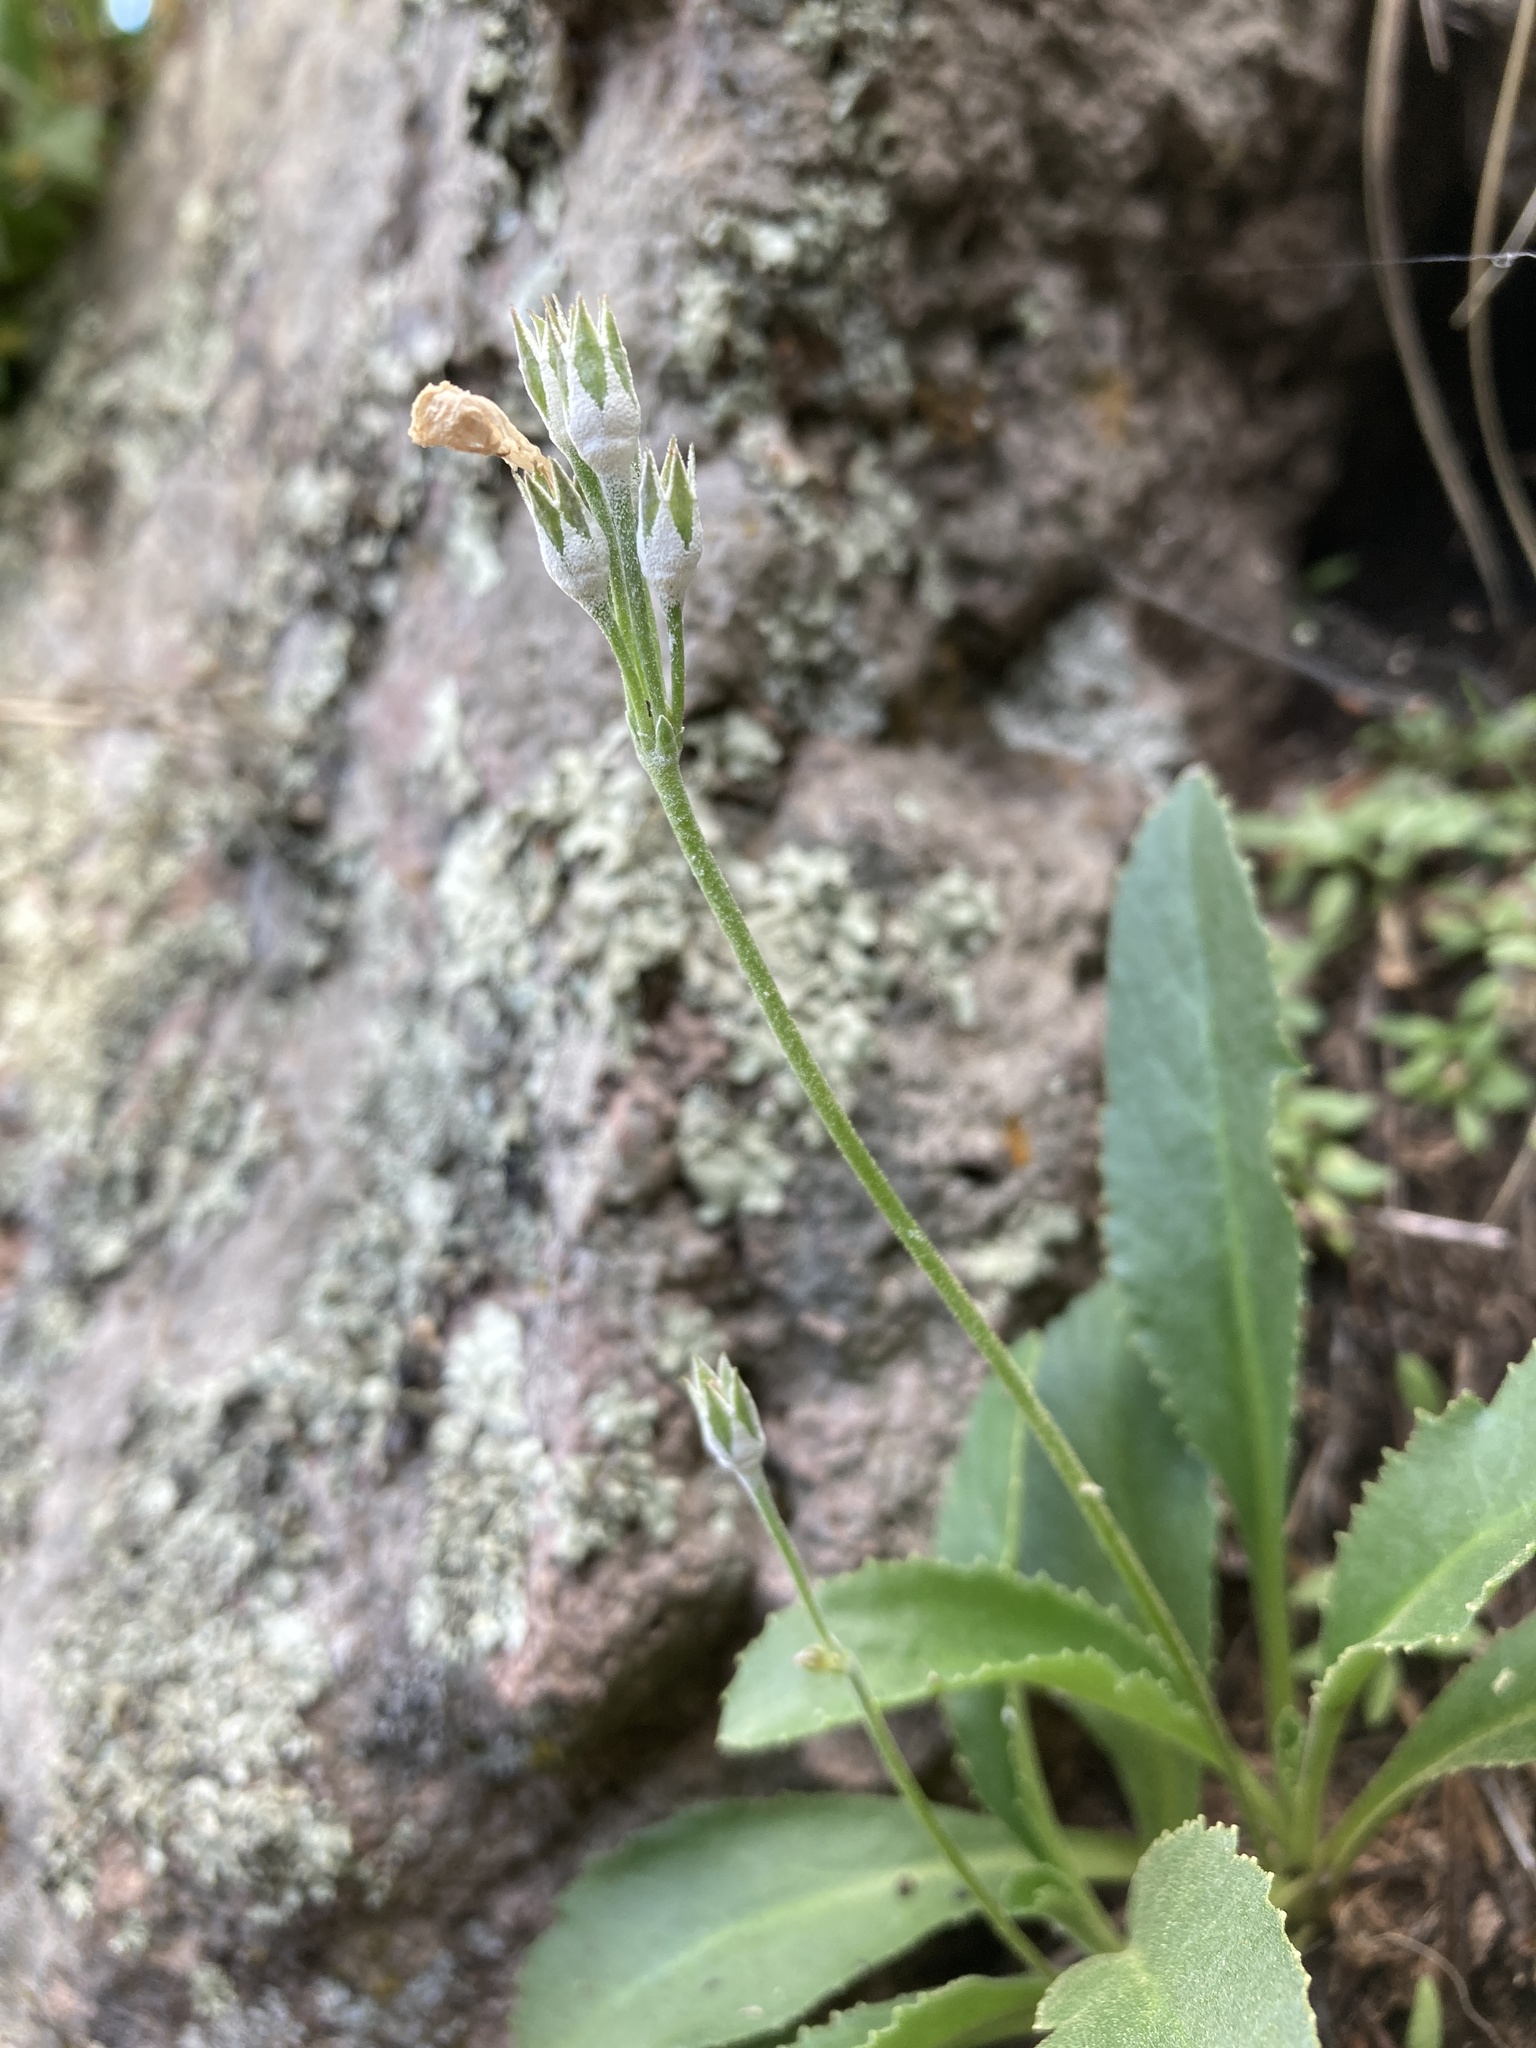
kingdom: Plantae
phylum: Tracheophyta
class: Magnoliopsida
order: Ericales
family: Primulaceae
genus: Primula
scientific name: Primula rusbyi
